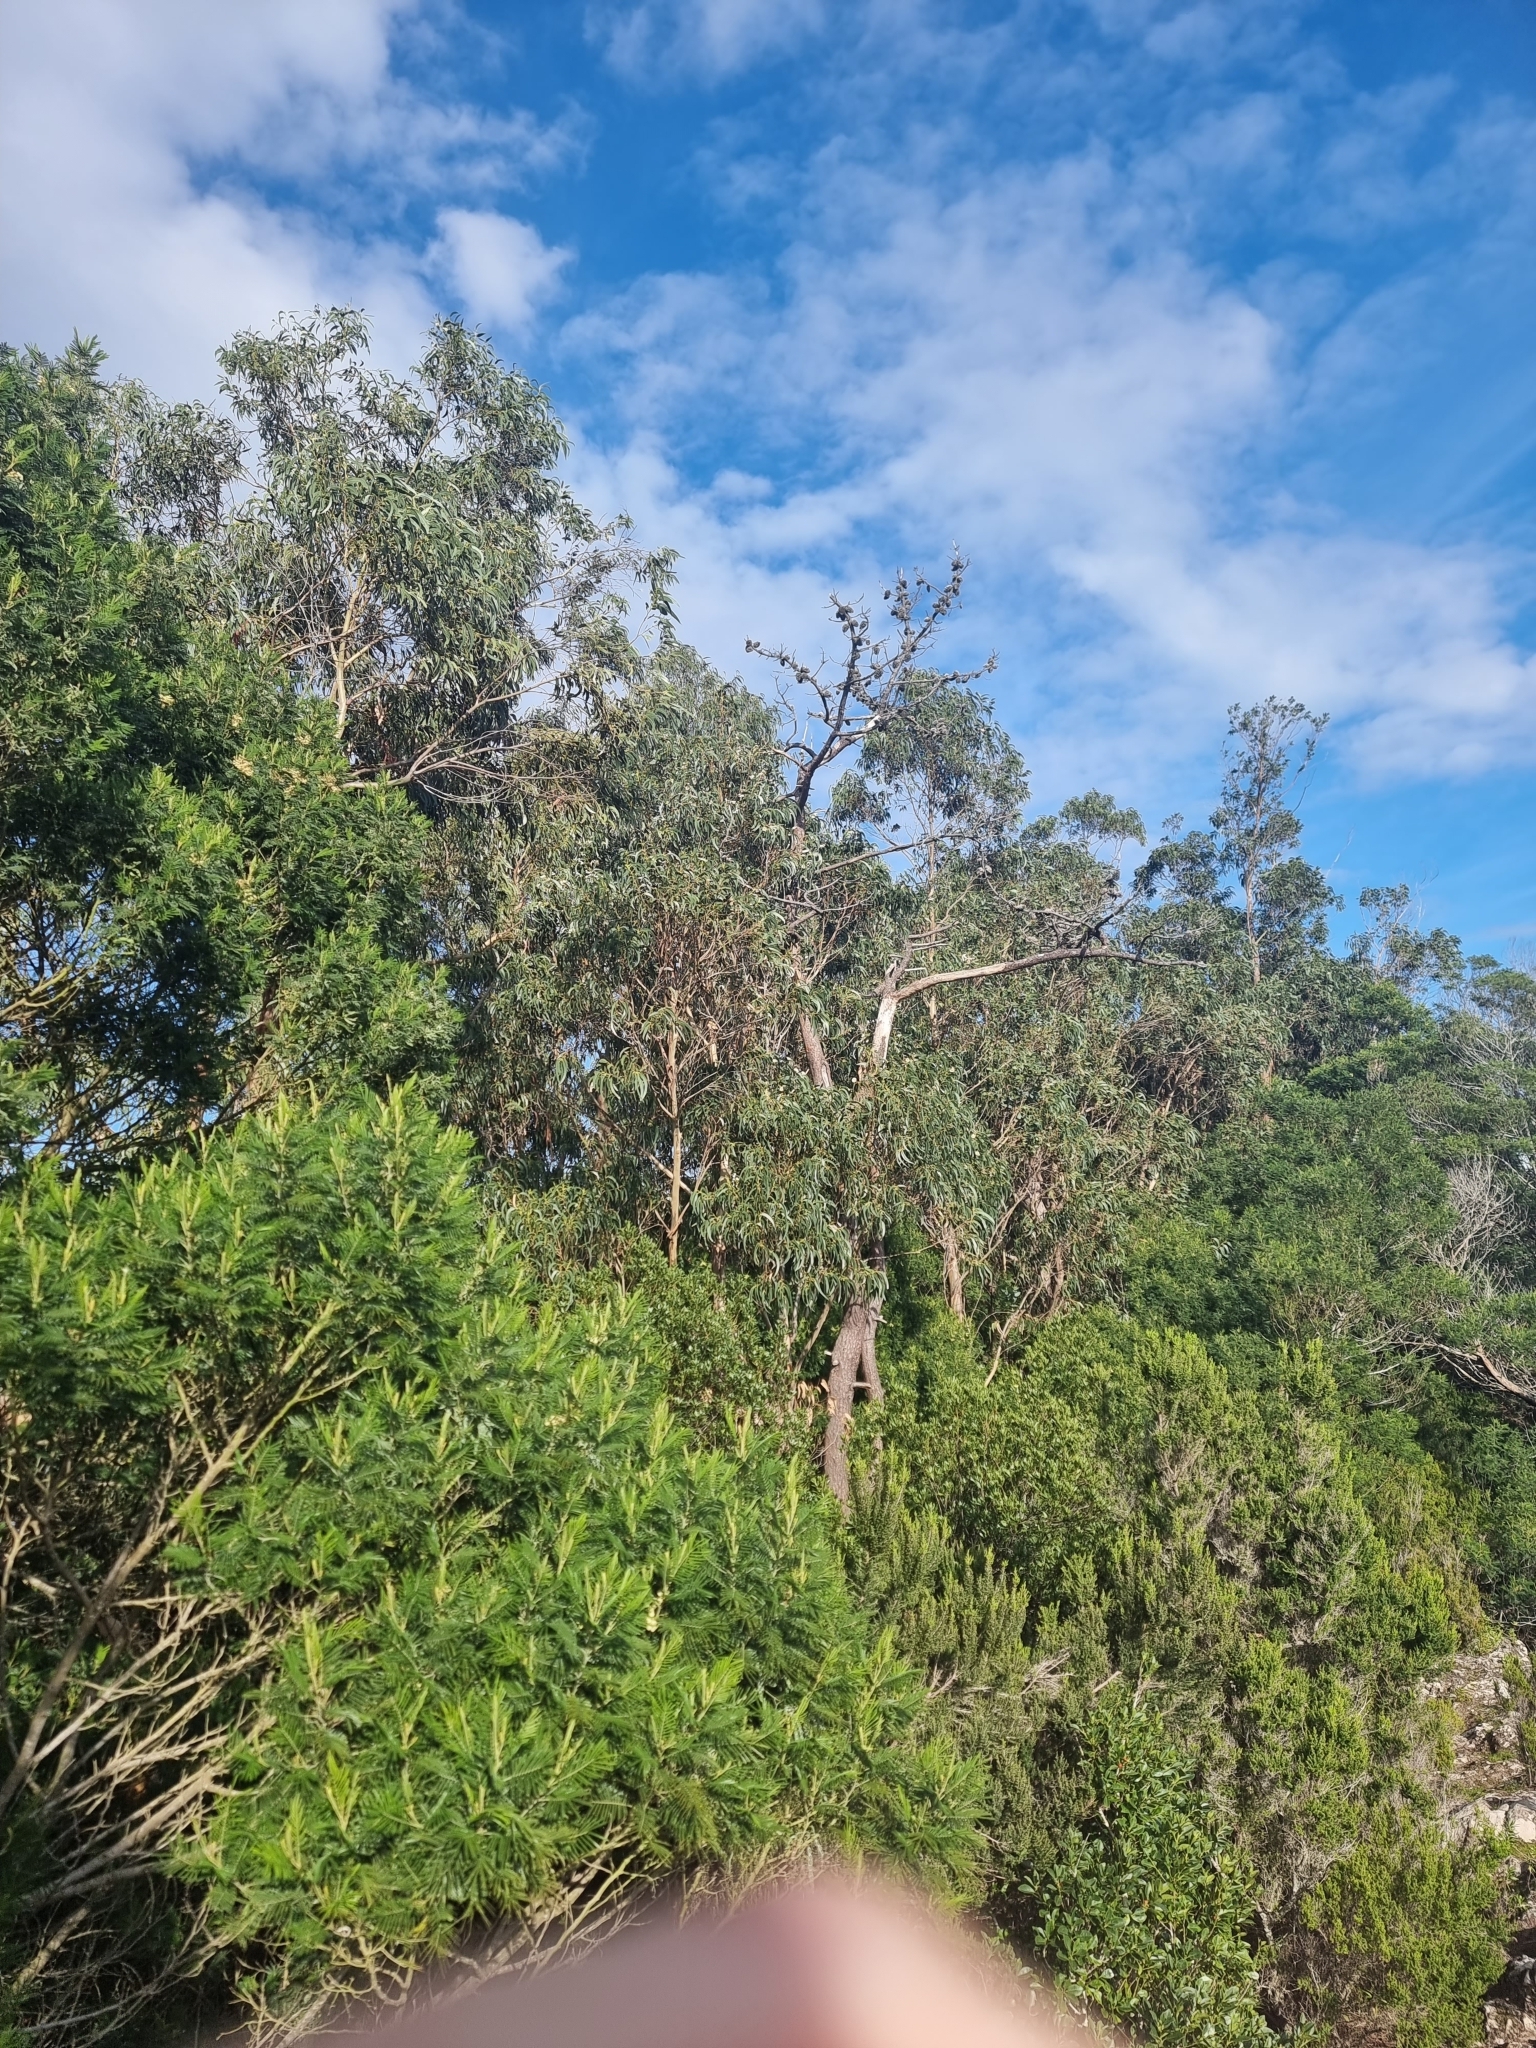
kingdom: Plantae
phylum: Tracheophyta
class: Magnoliopsida
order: Myrtales
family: Myrtaceae
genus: Eucalyptus
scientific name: Eucalyptus globulus
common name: Southern blue-gum
